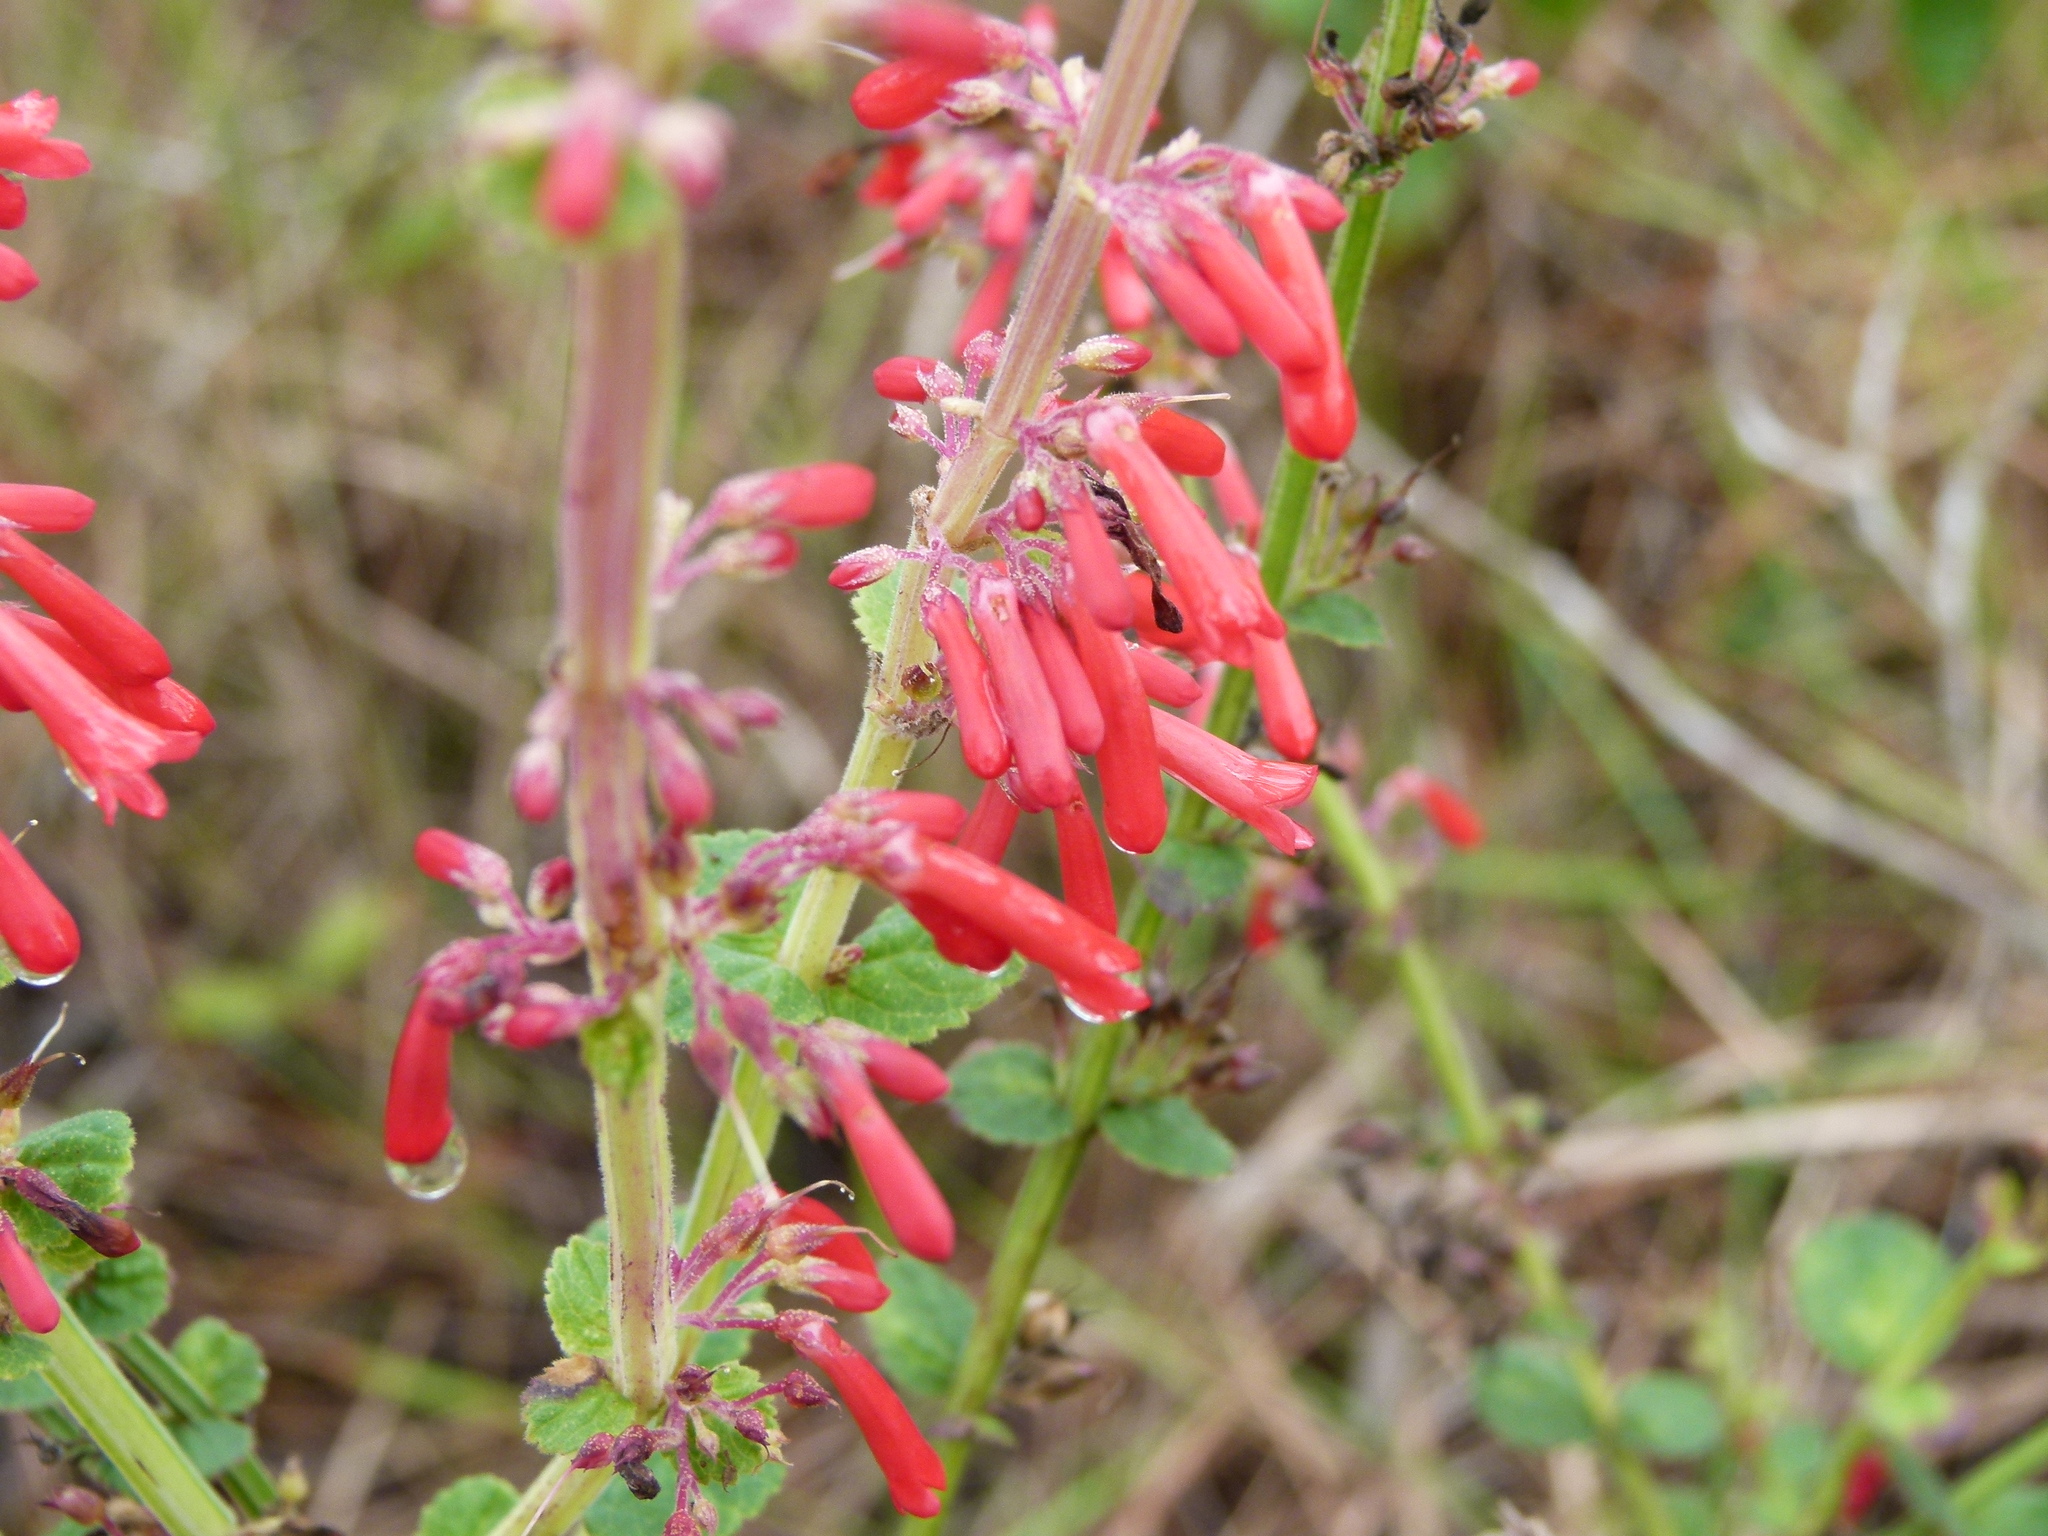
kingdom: Plantae
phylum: Tracheophyta
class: Magnoliopsida
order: Lamiales
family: Plantaginaceae
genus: Russelia
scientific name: Russelia sarmentosa
